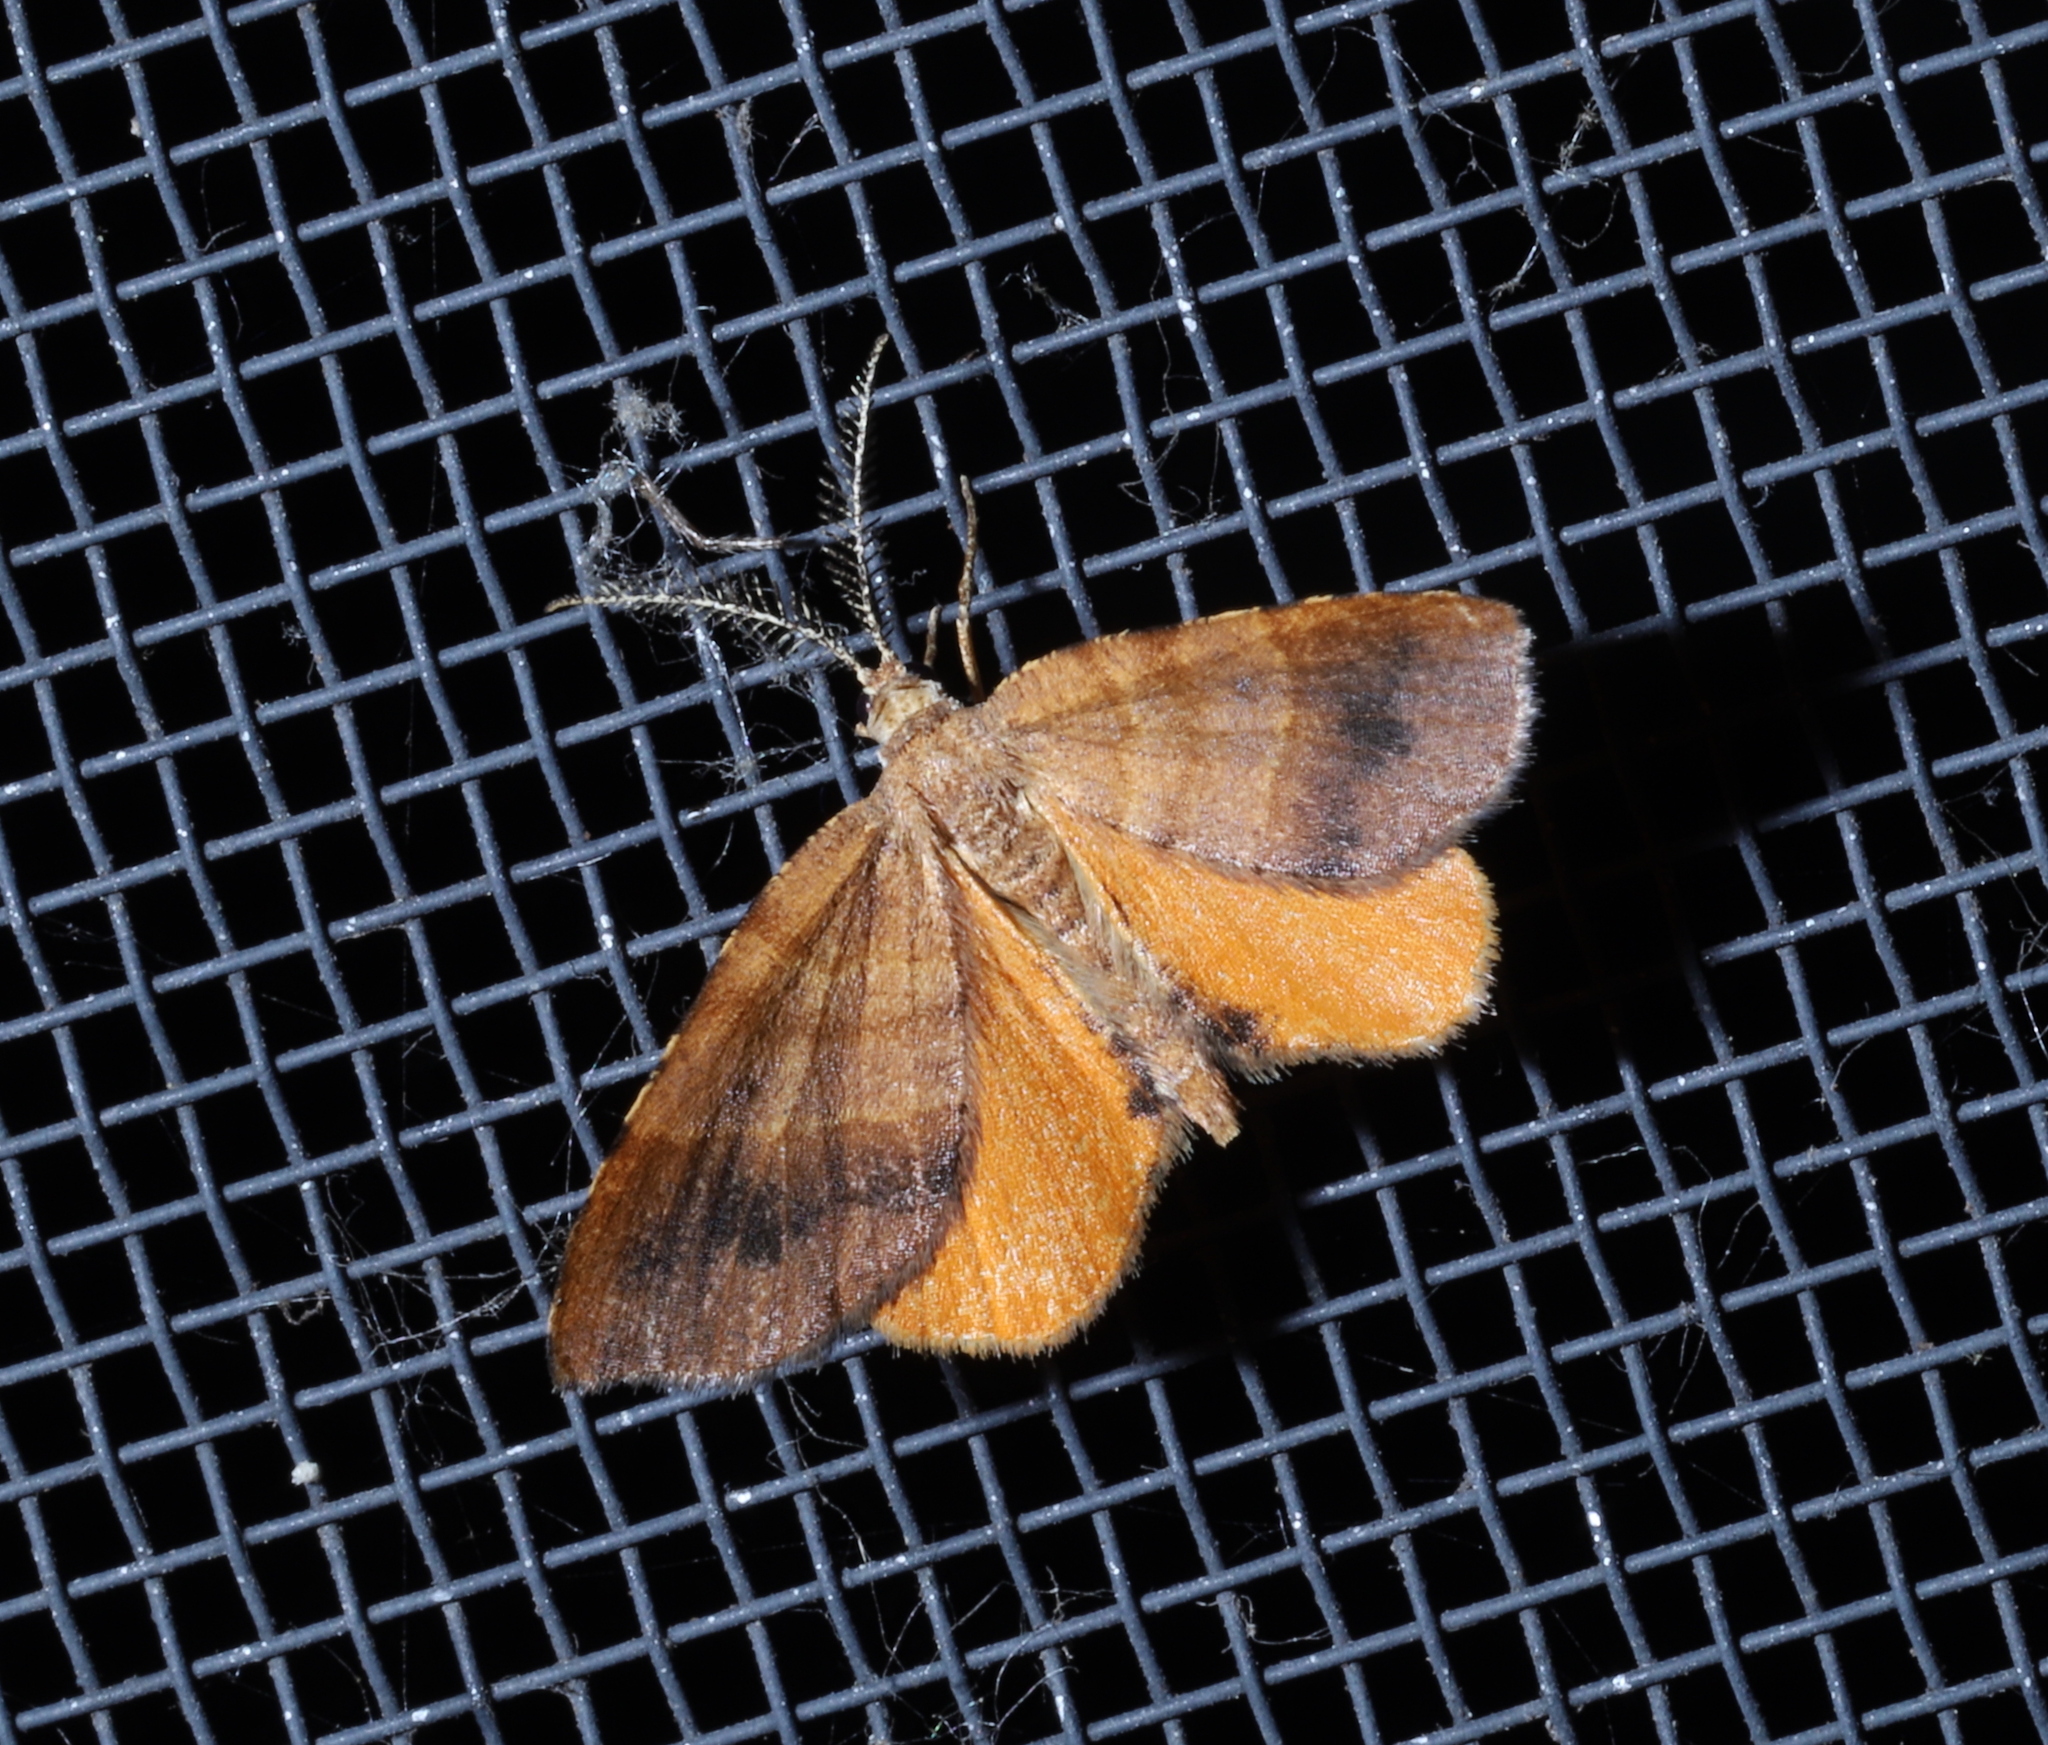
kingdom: Animalia
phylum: Arthropoda
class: Insecta
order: Lepidoptera
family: Geometridae
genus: Mellilla
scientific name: Mellilla xanthometata
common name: Orange wing moth
